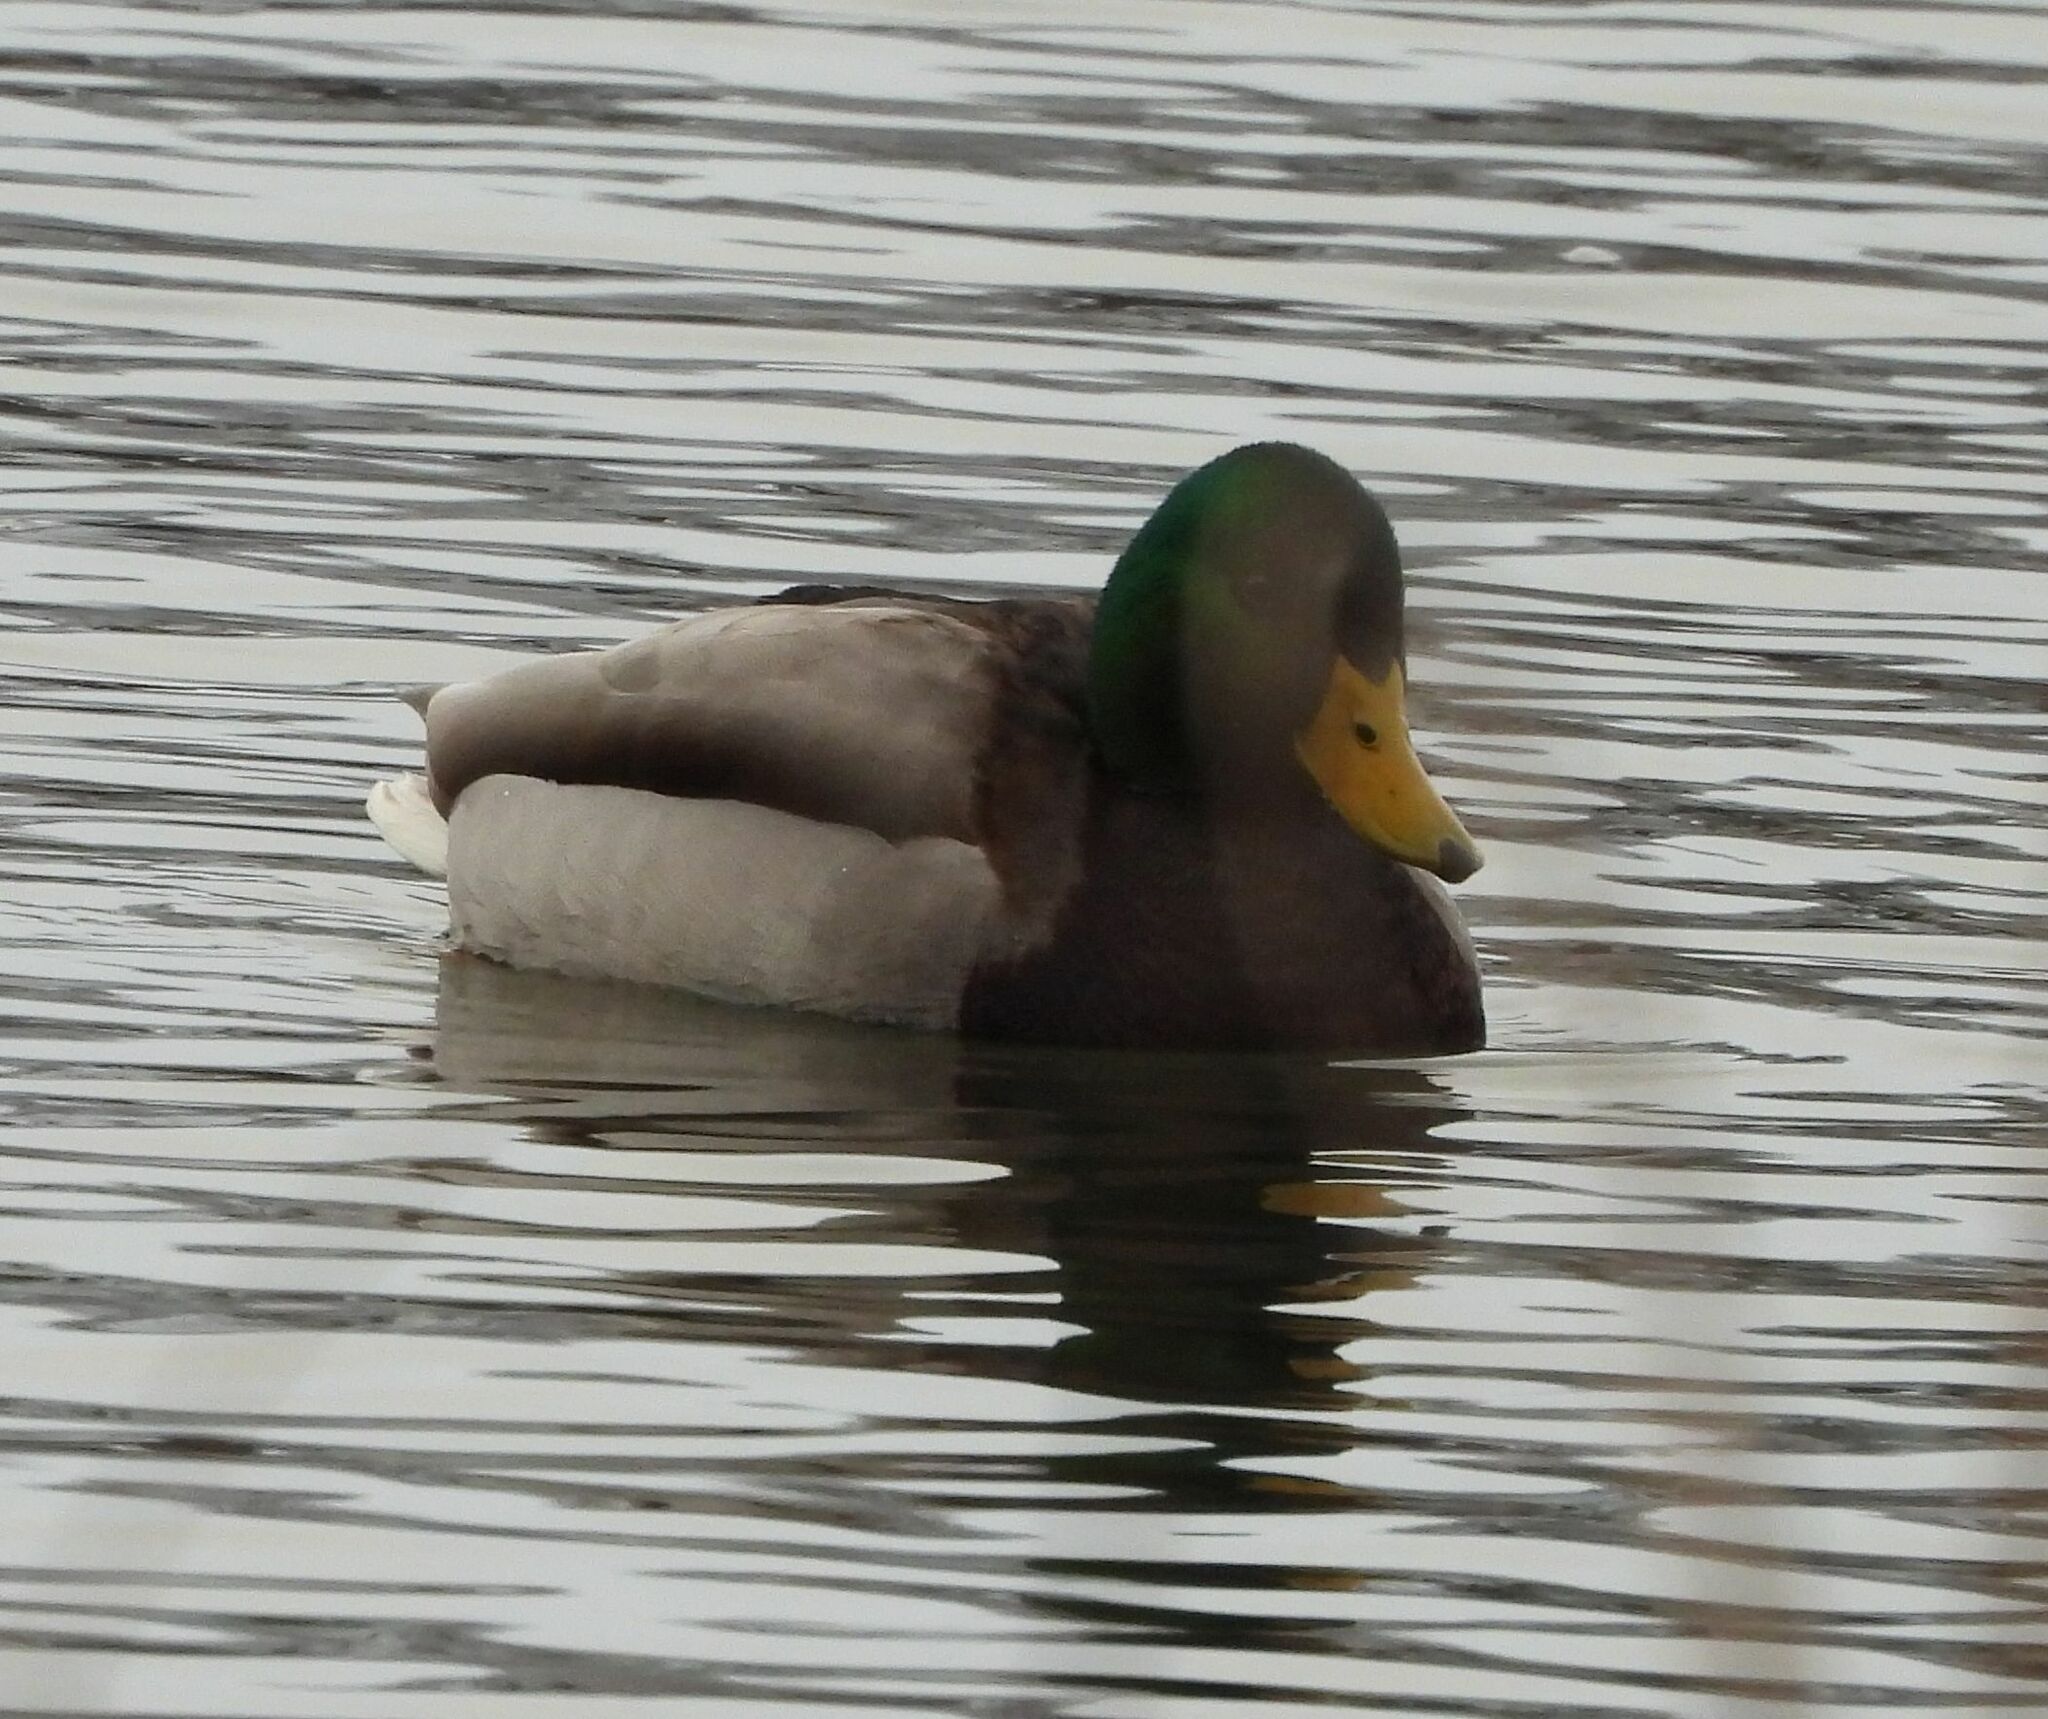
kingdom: Animalia
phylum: Chordata
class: Aves
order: Anseriformes
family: Anatidae
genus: Anas
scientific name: Anas platyrhynchos
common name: Mallard
